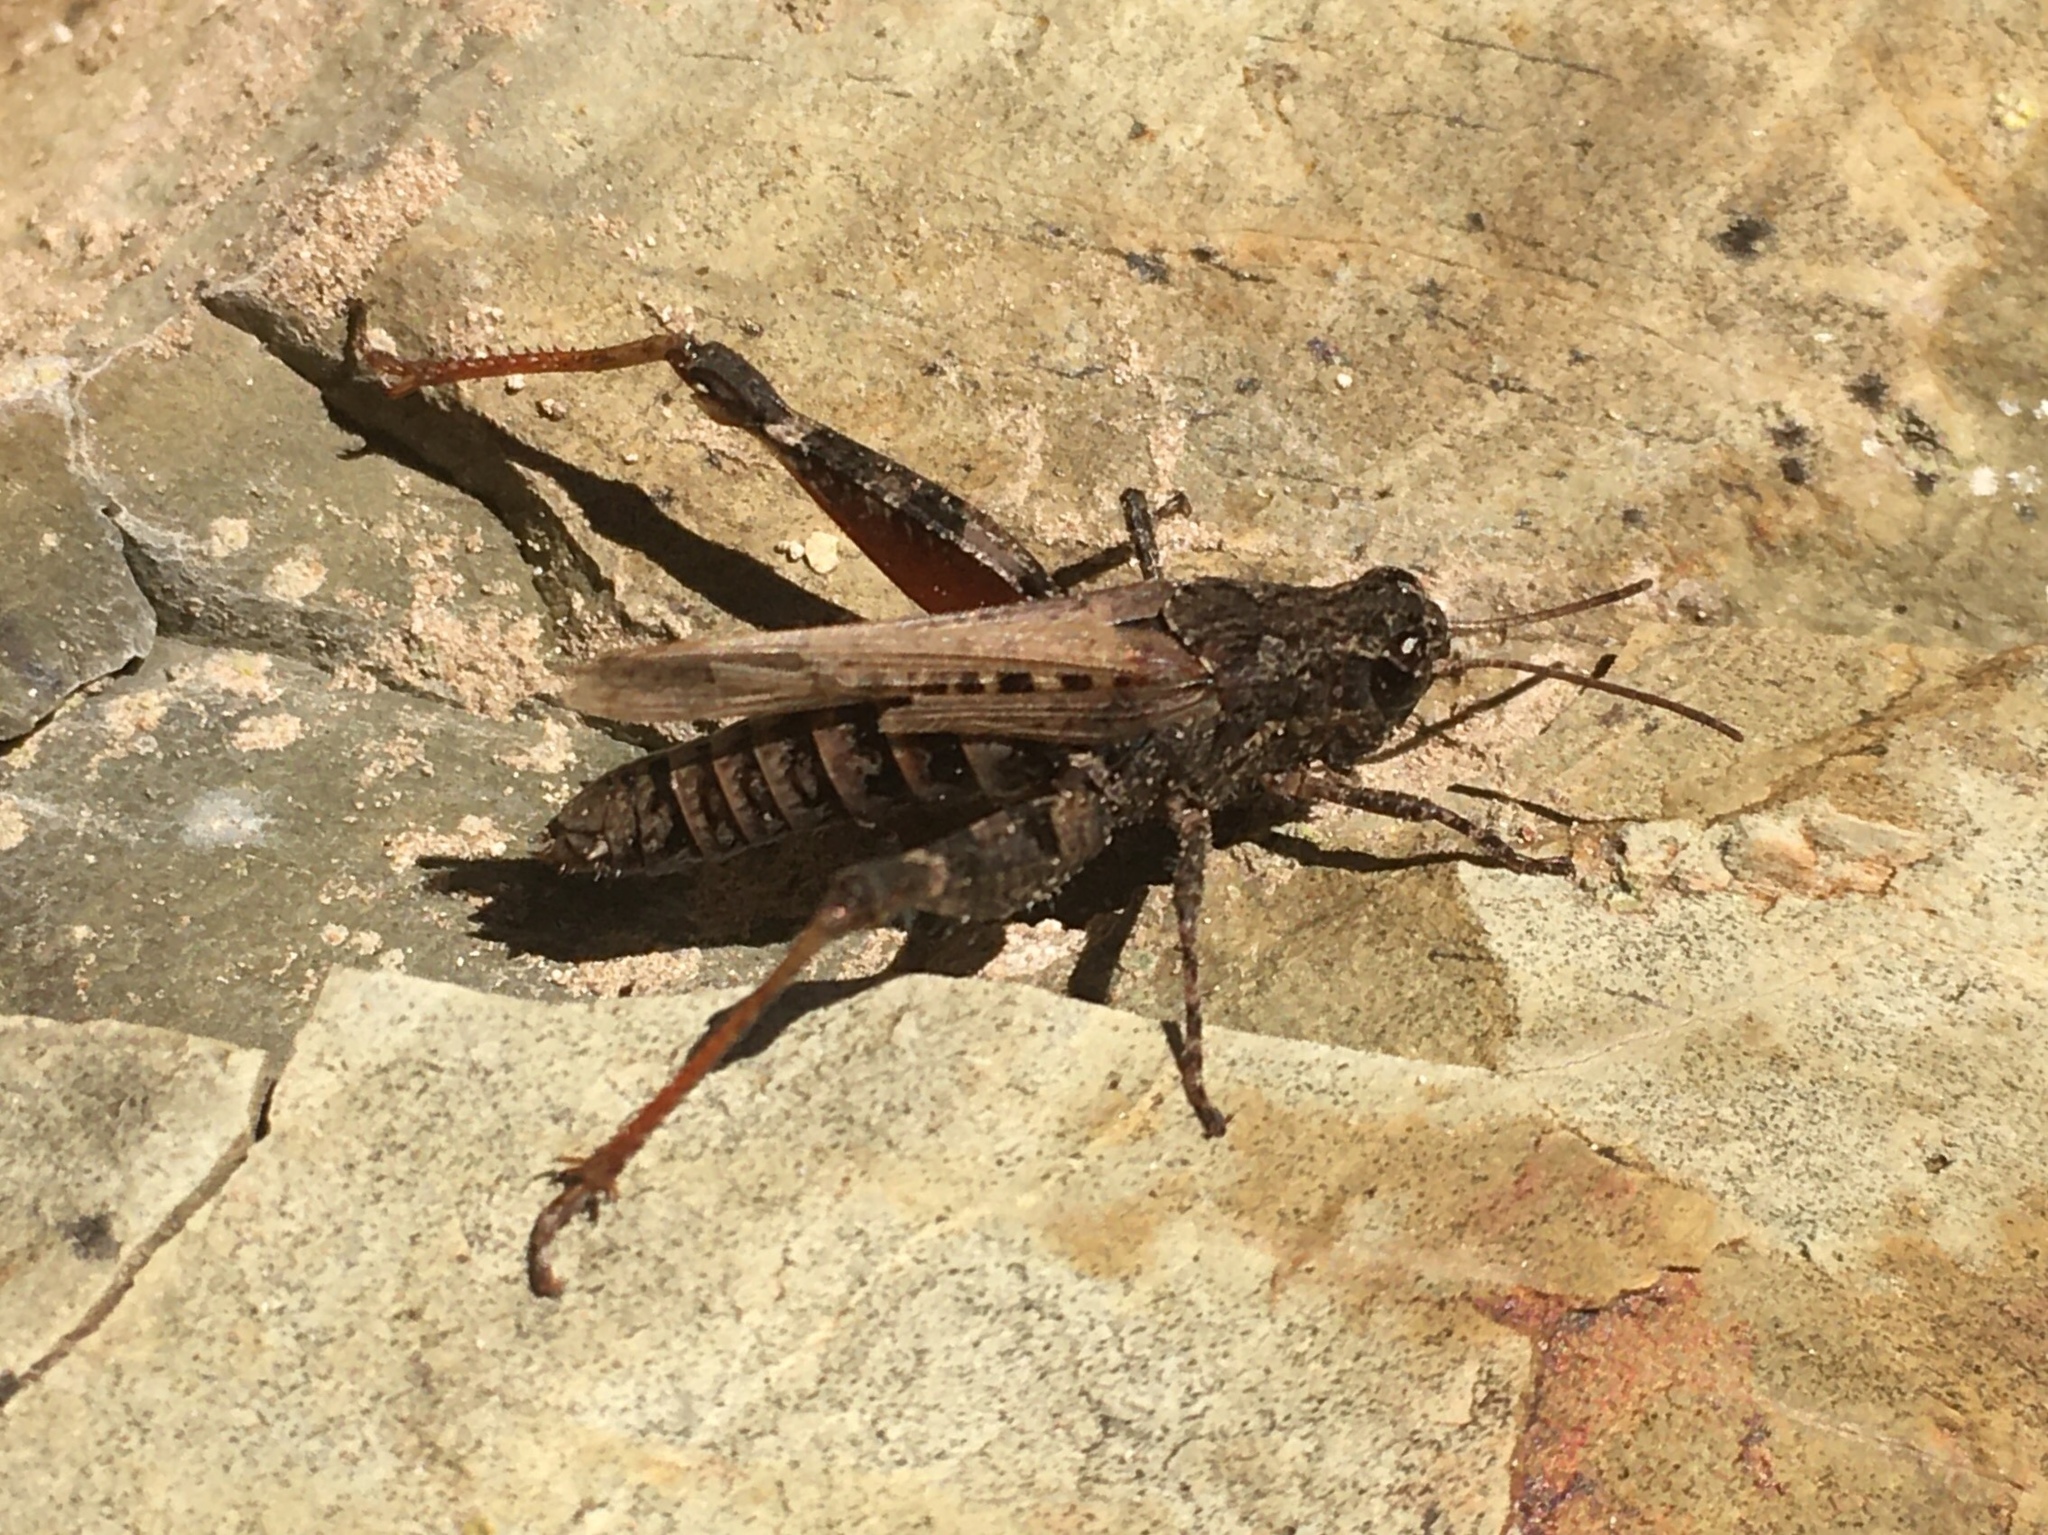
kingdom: Animalia
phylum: Arthropoda
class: Insecta
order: Orthoptera
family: Acrididae
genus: Baeacris
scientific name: Baeacris
